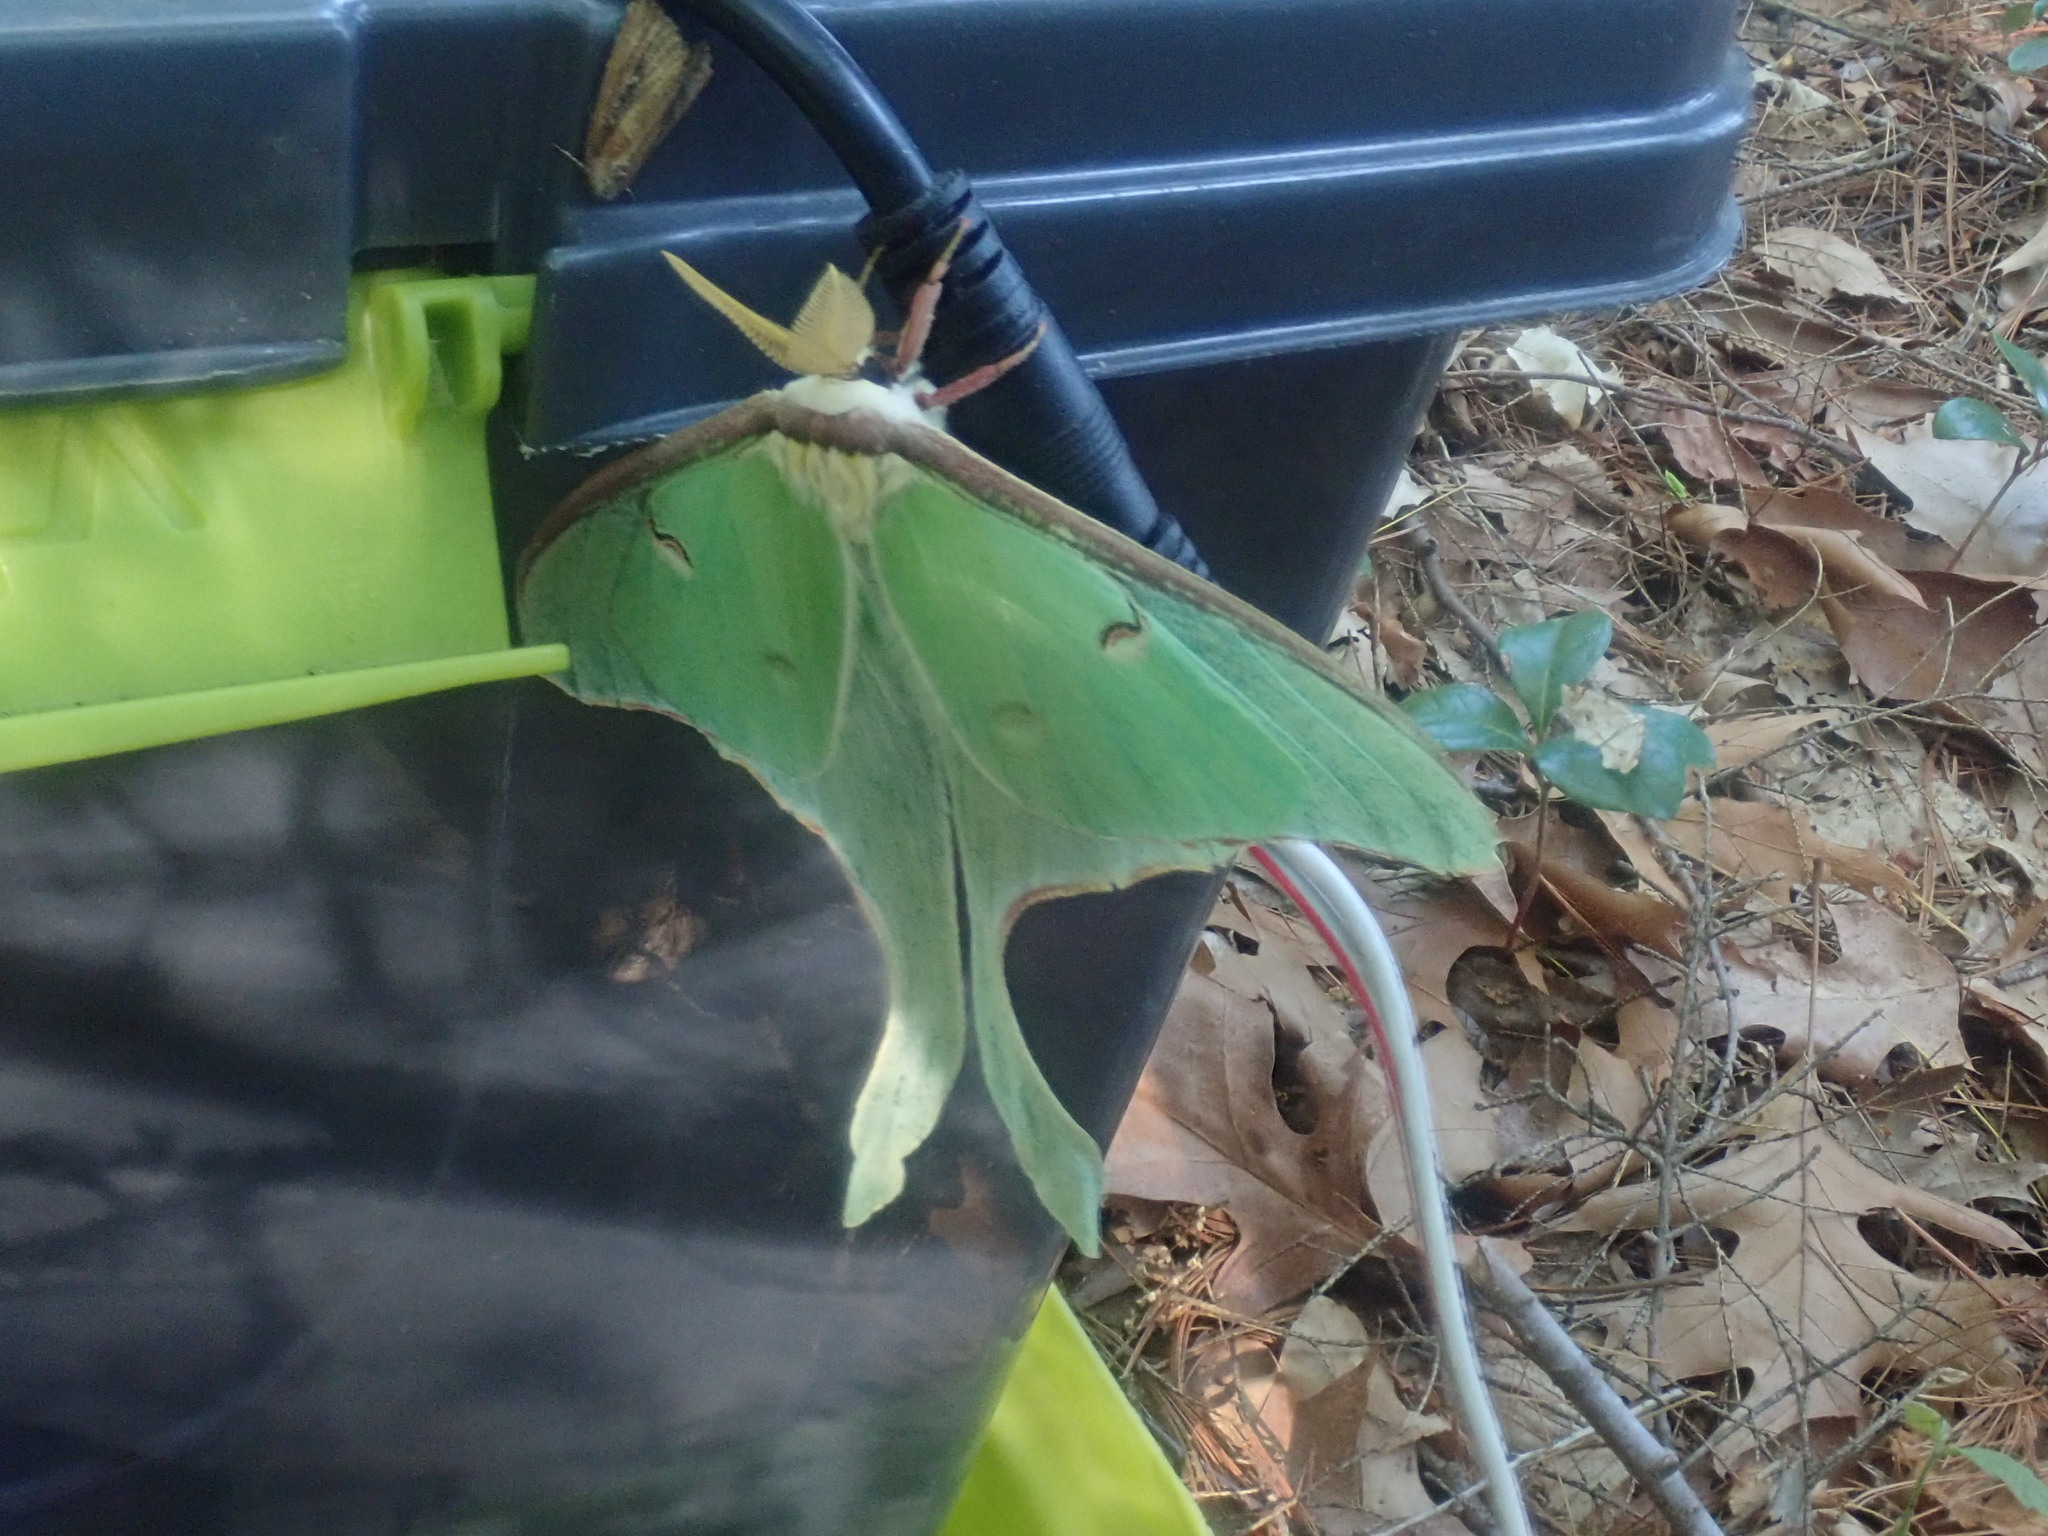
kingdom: Animalia
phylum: Arthropoda
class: Insecta
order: Lepidoptera
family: Saturniidae
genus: Actias
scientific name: Actias luna
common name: Luna moth
